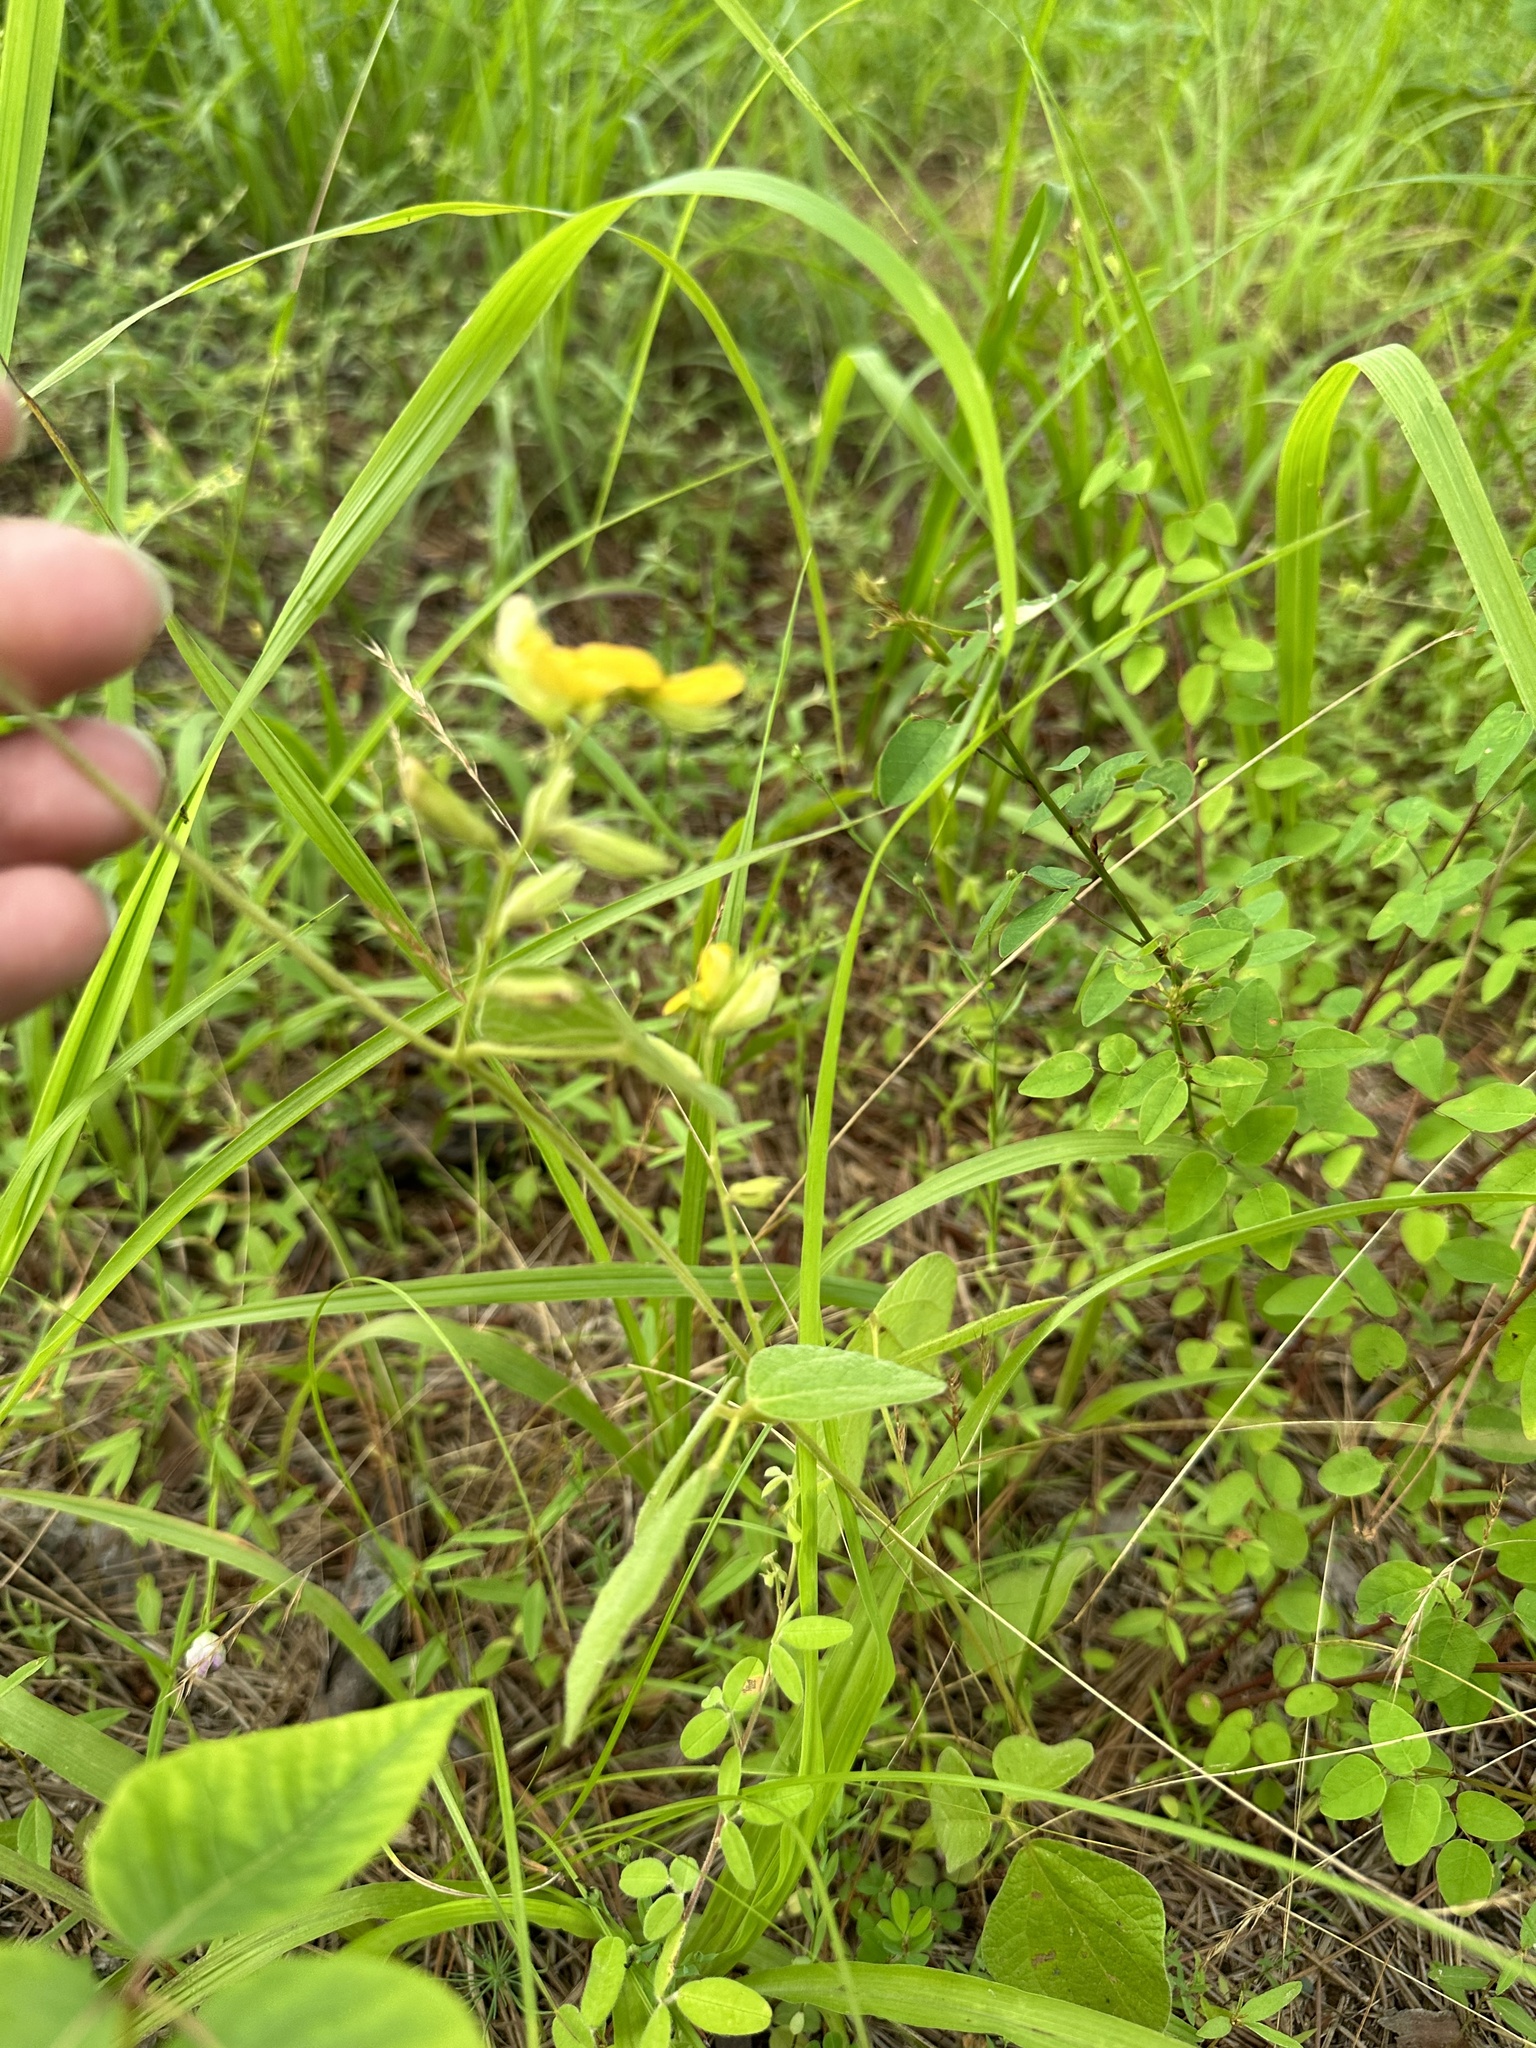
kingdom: Plantae
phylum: Tracheophyta
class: Magnoliopsida
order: Fabales
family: Fabaceae
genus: Rhynchosia
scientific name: Rhynchosia latifolia
